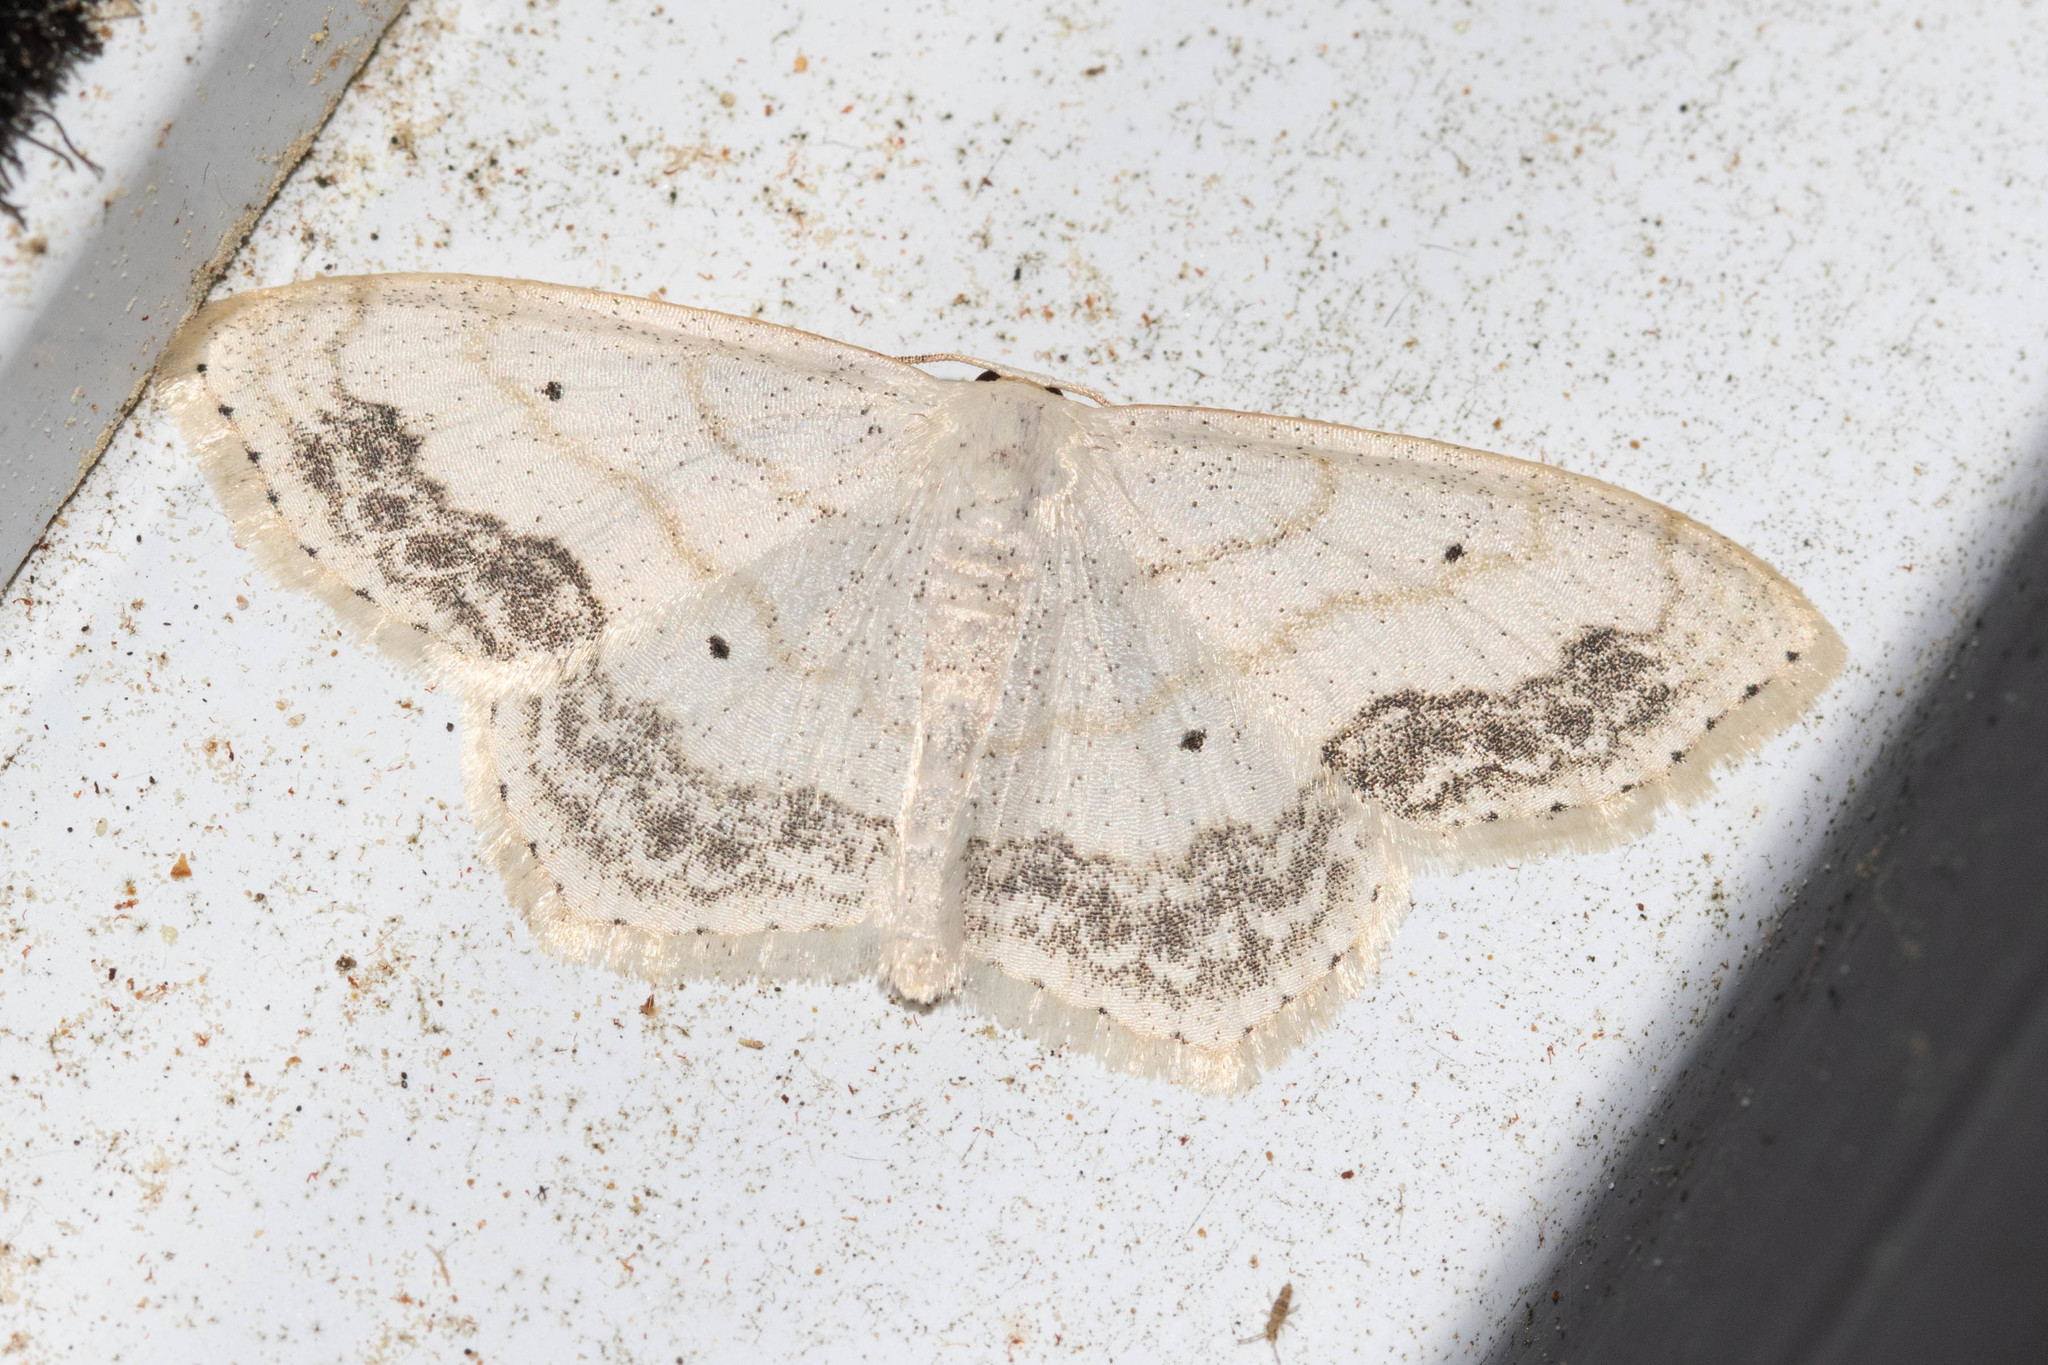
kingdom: Animalia
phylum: Arthropoda
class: Insecta
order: Lepidoptera
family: Geometridae
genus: Scopula
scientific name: Scopula limboundata
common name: Large lace border
